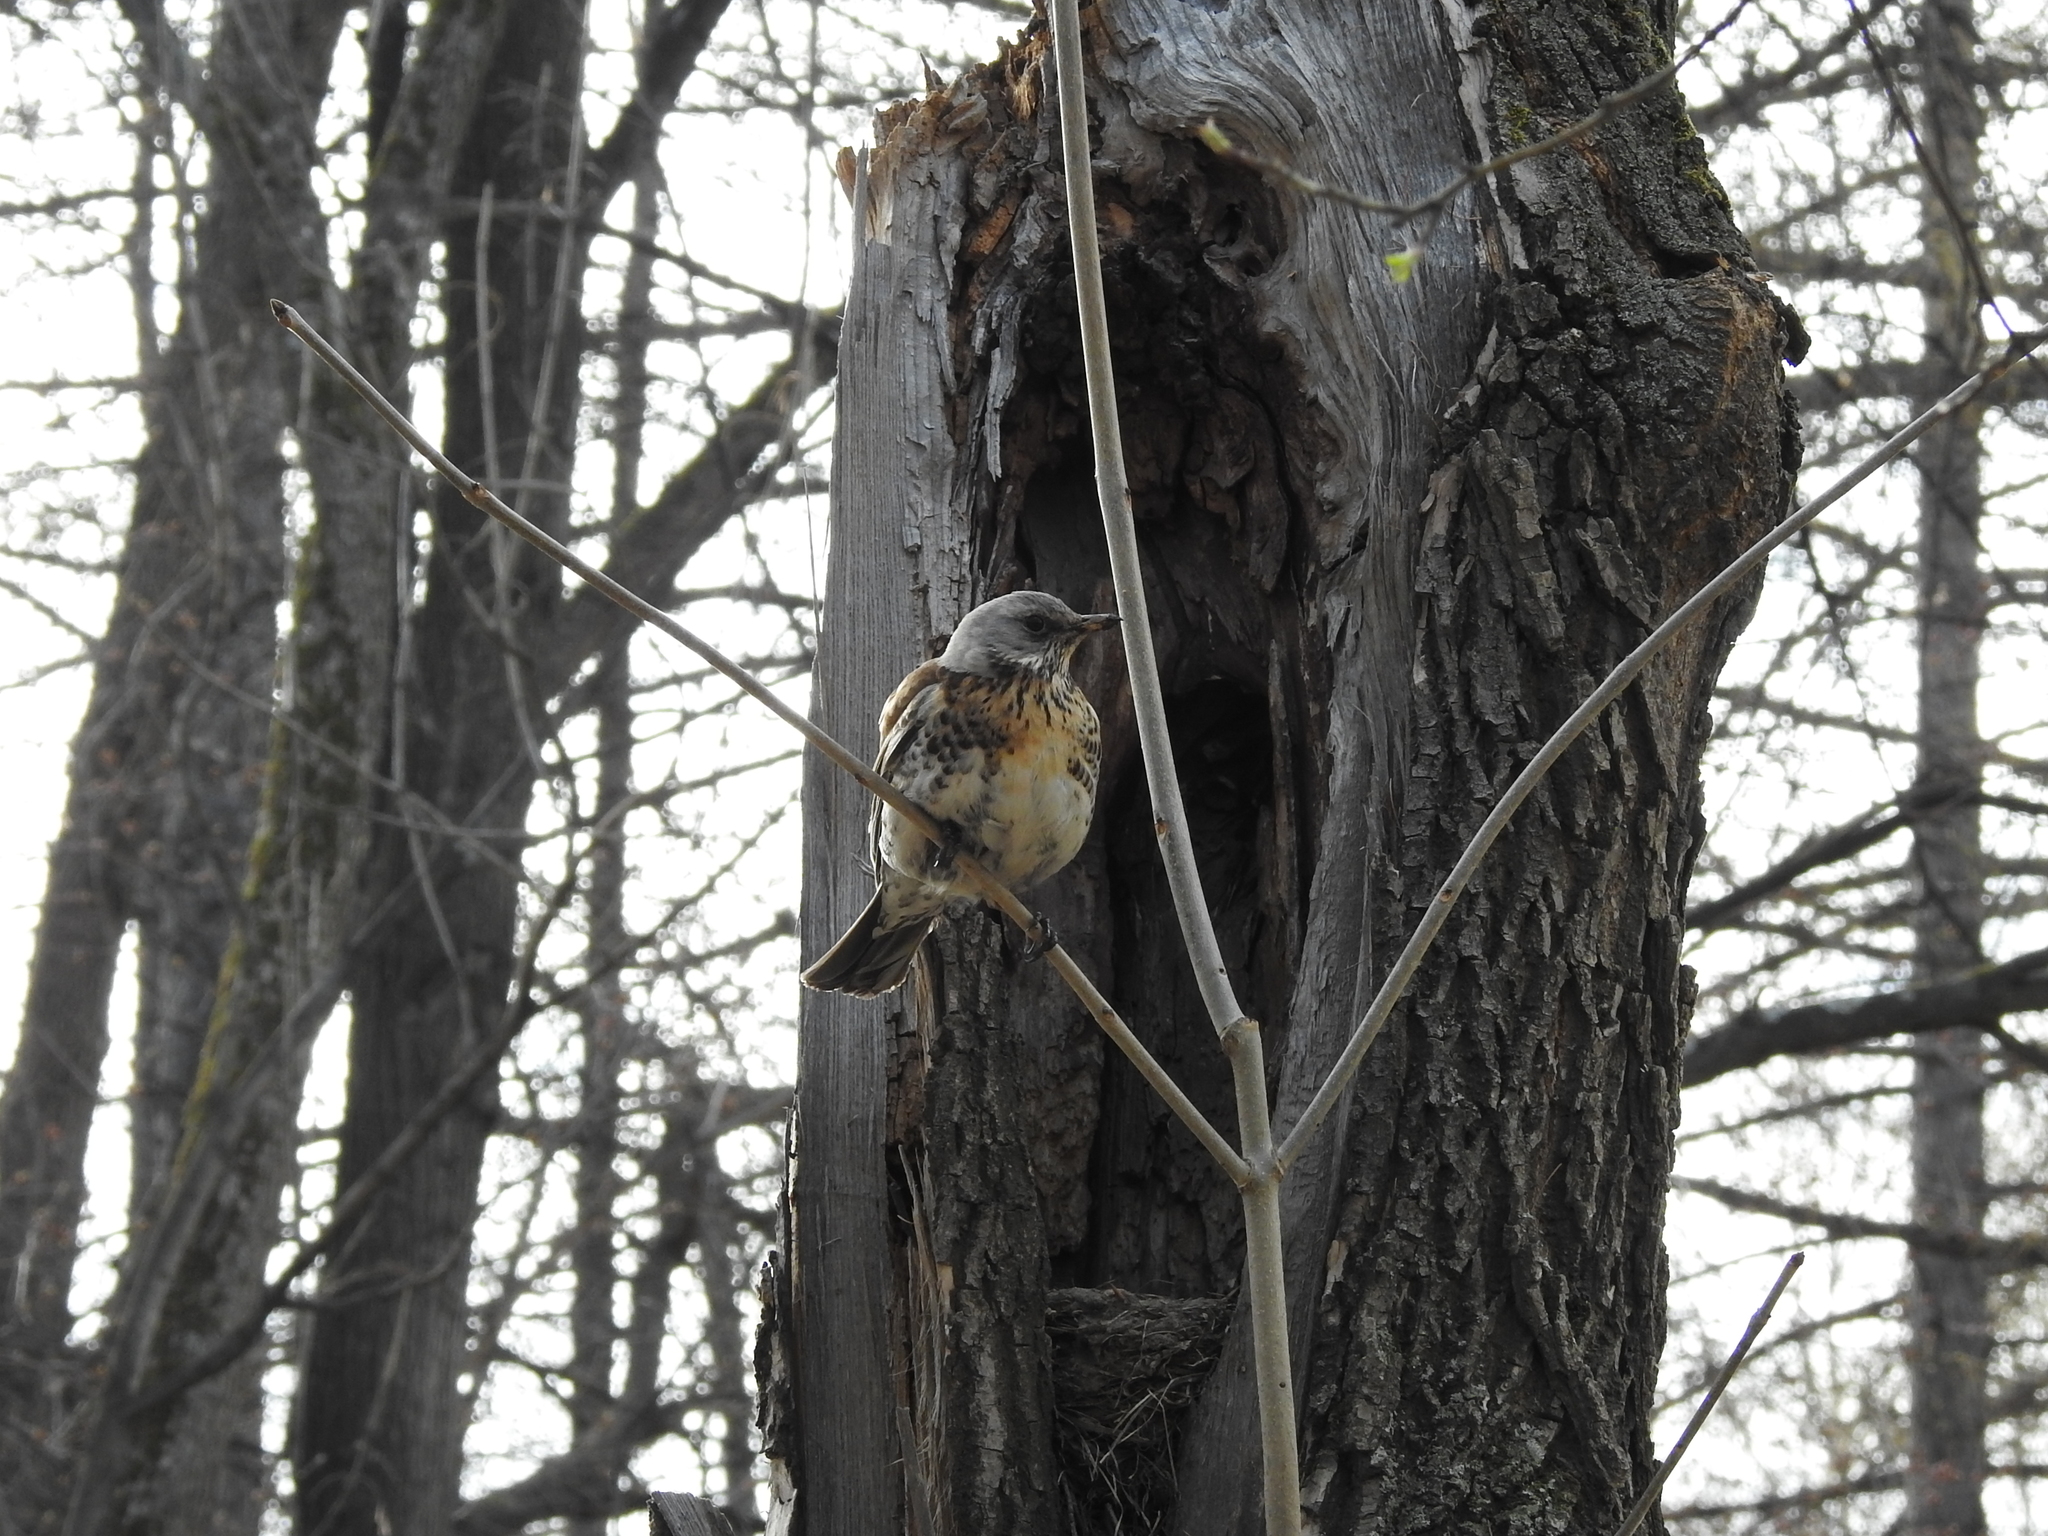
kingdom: Animalia
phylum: Chordata
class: Aves
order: Passeriformes
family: Turdidae
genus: Turdus
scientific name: Turdus pilaris
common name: Fieldfare
